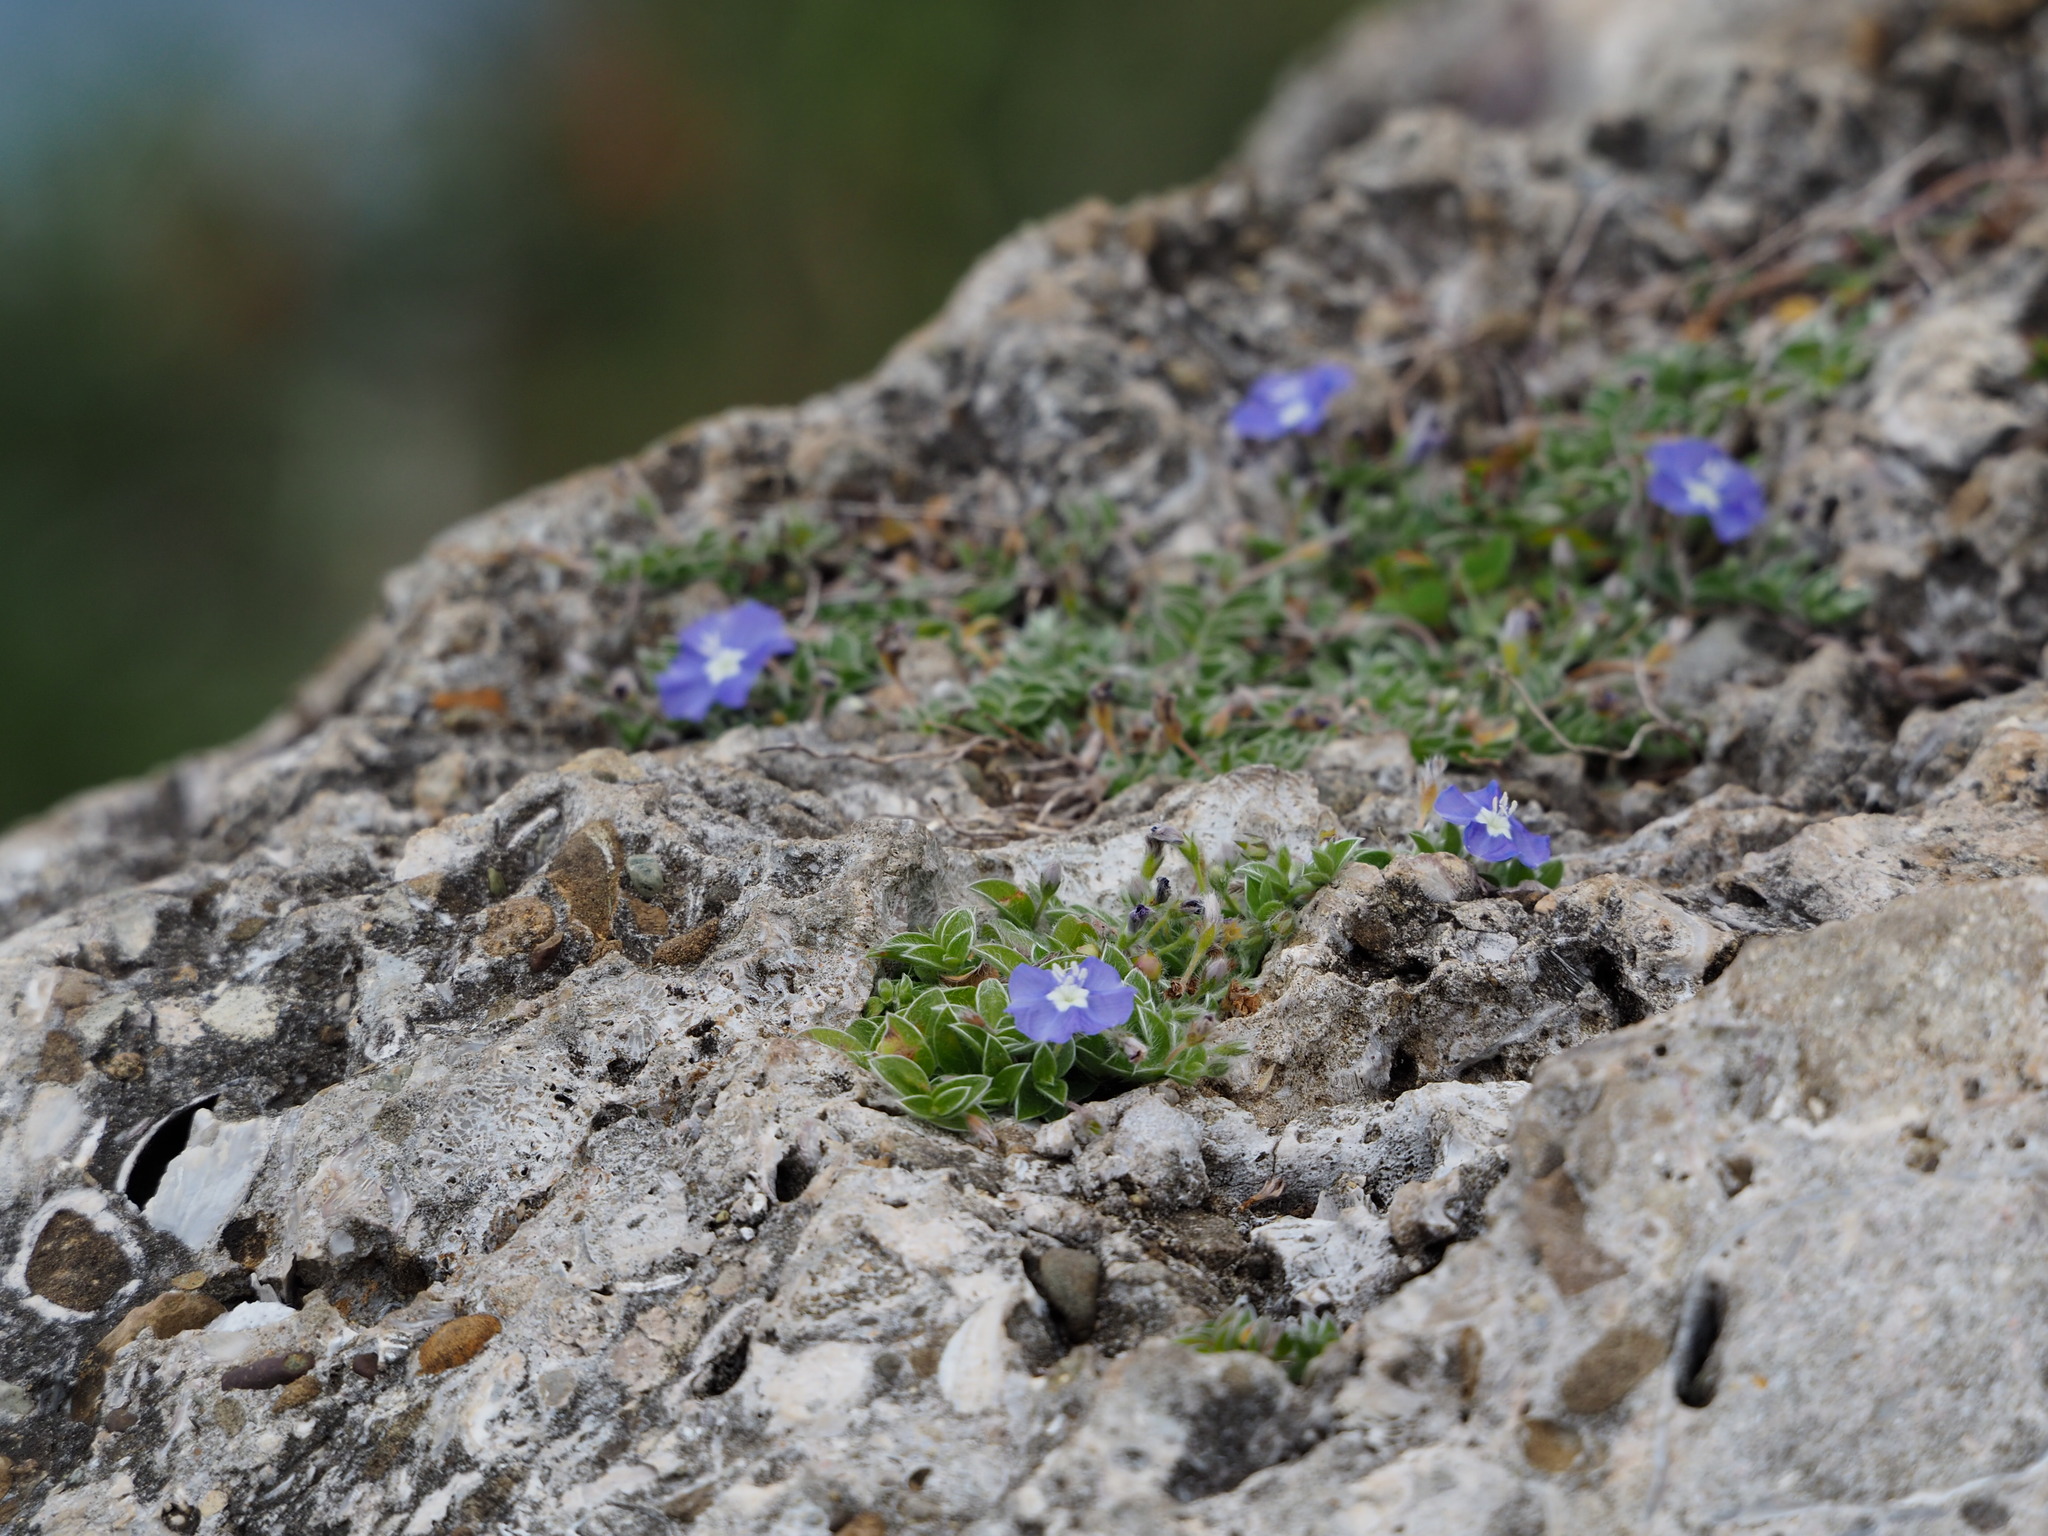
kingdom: Plantae
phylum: Tracheophyta
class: Magnoliopsida
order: Solanales
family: Convolvulaceae
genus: Evolvulus
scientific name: Evolvulus alsinoides
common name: Slender dwarf morning-glory
